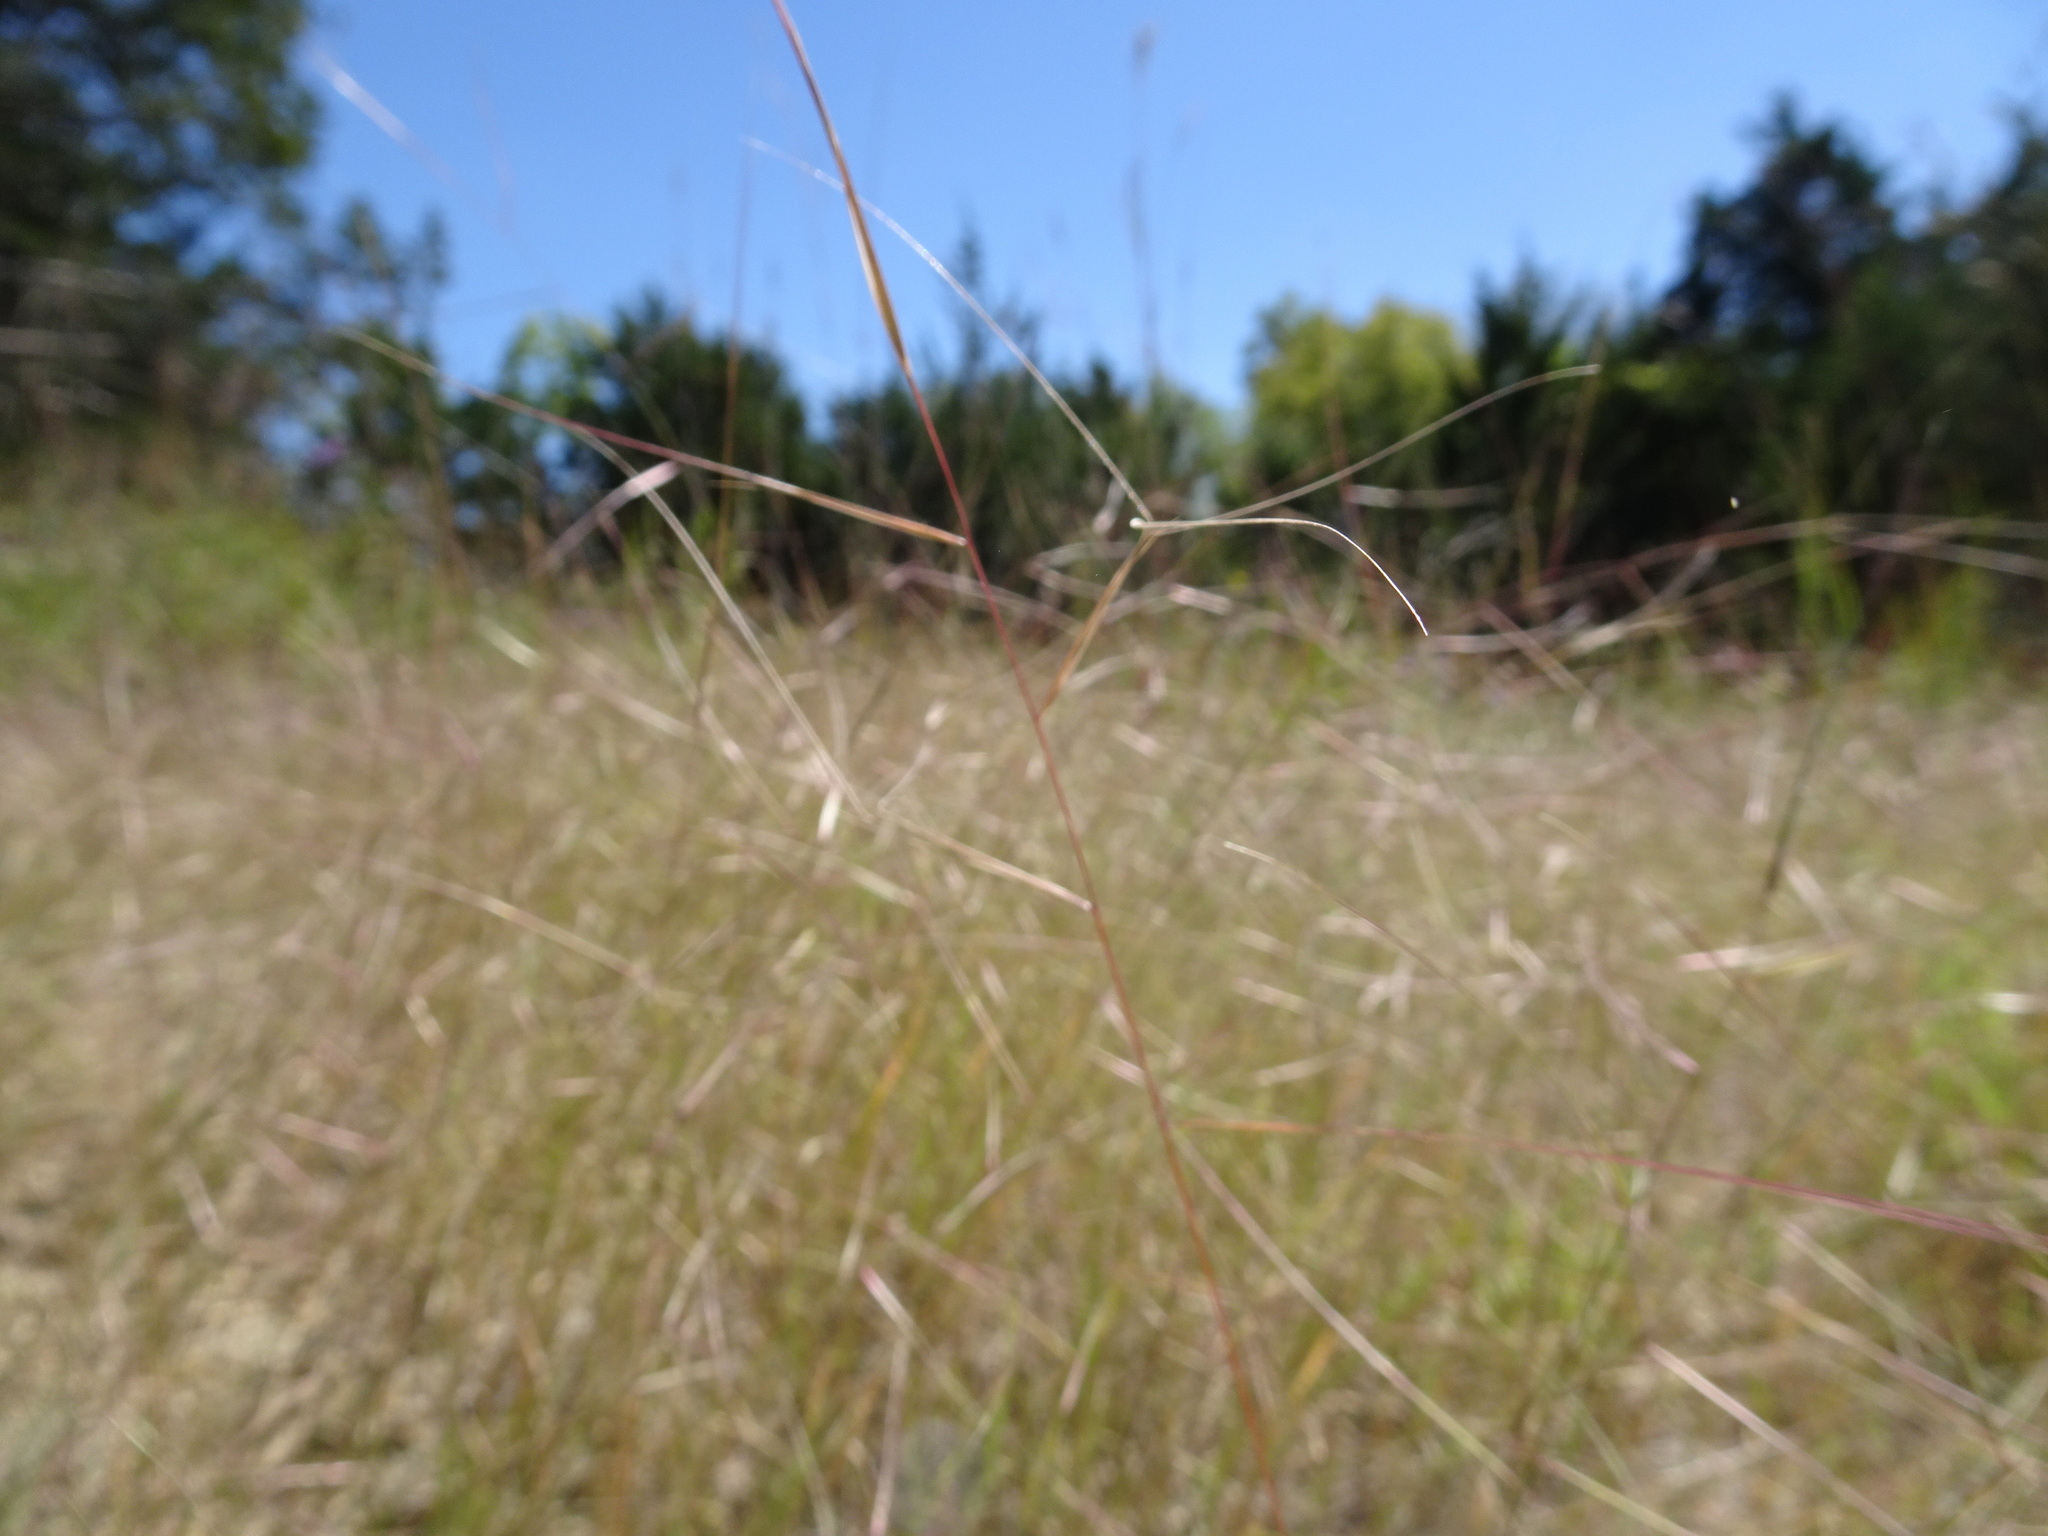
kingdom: Plantae
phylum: Tracheophyta
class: Liliopsida
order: Poales
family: Poaceae
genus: Aristida
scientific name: Aristida oligantha
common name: Few-flowered aristida
